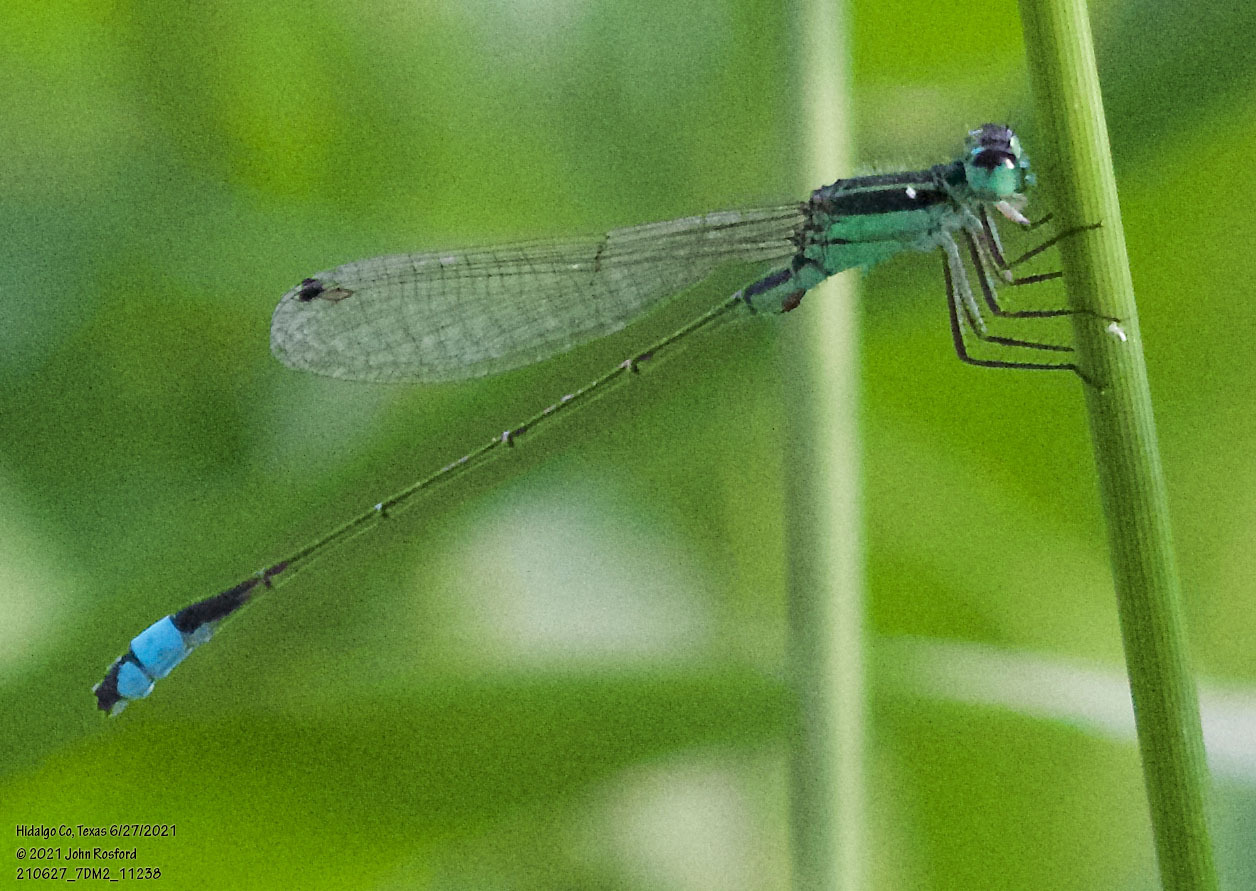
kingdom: Animalia
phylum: Arthropoda
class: Insecta
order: Odonata
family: Coenagrionidae
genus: Ischnura
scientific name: Ischnura ramburii
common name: Rambur's forktail
